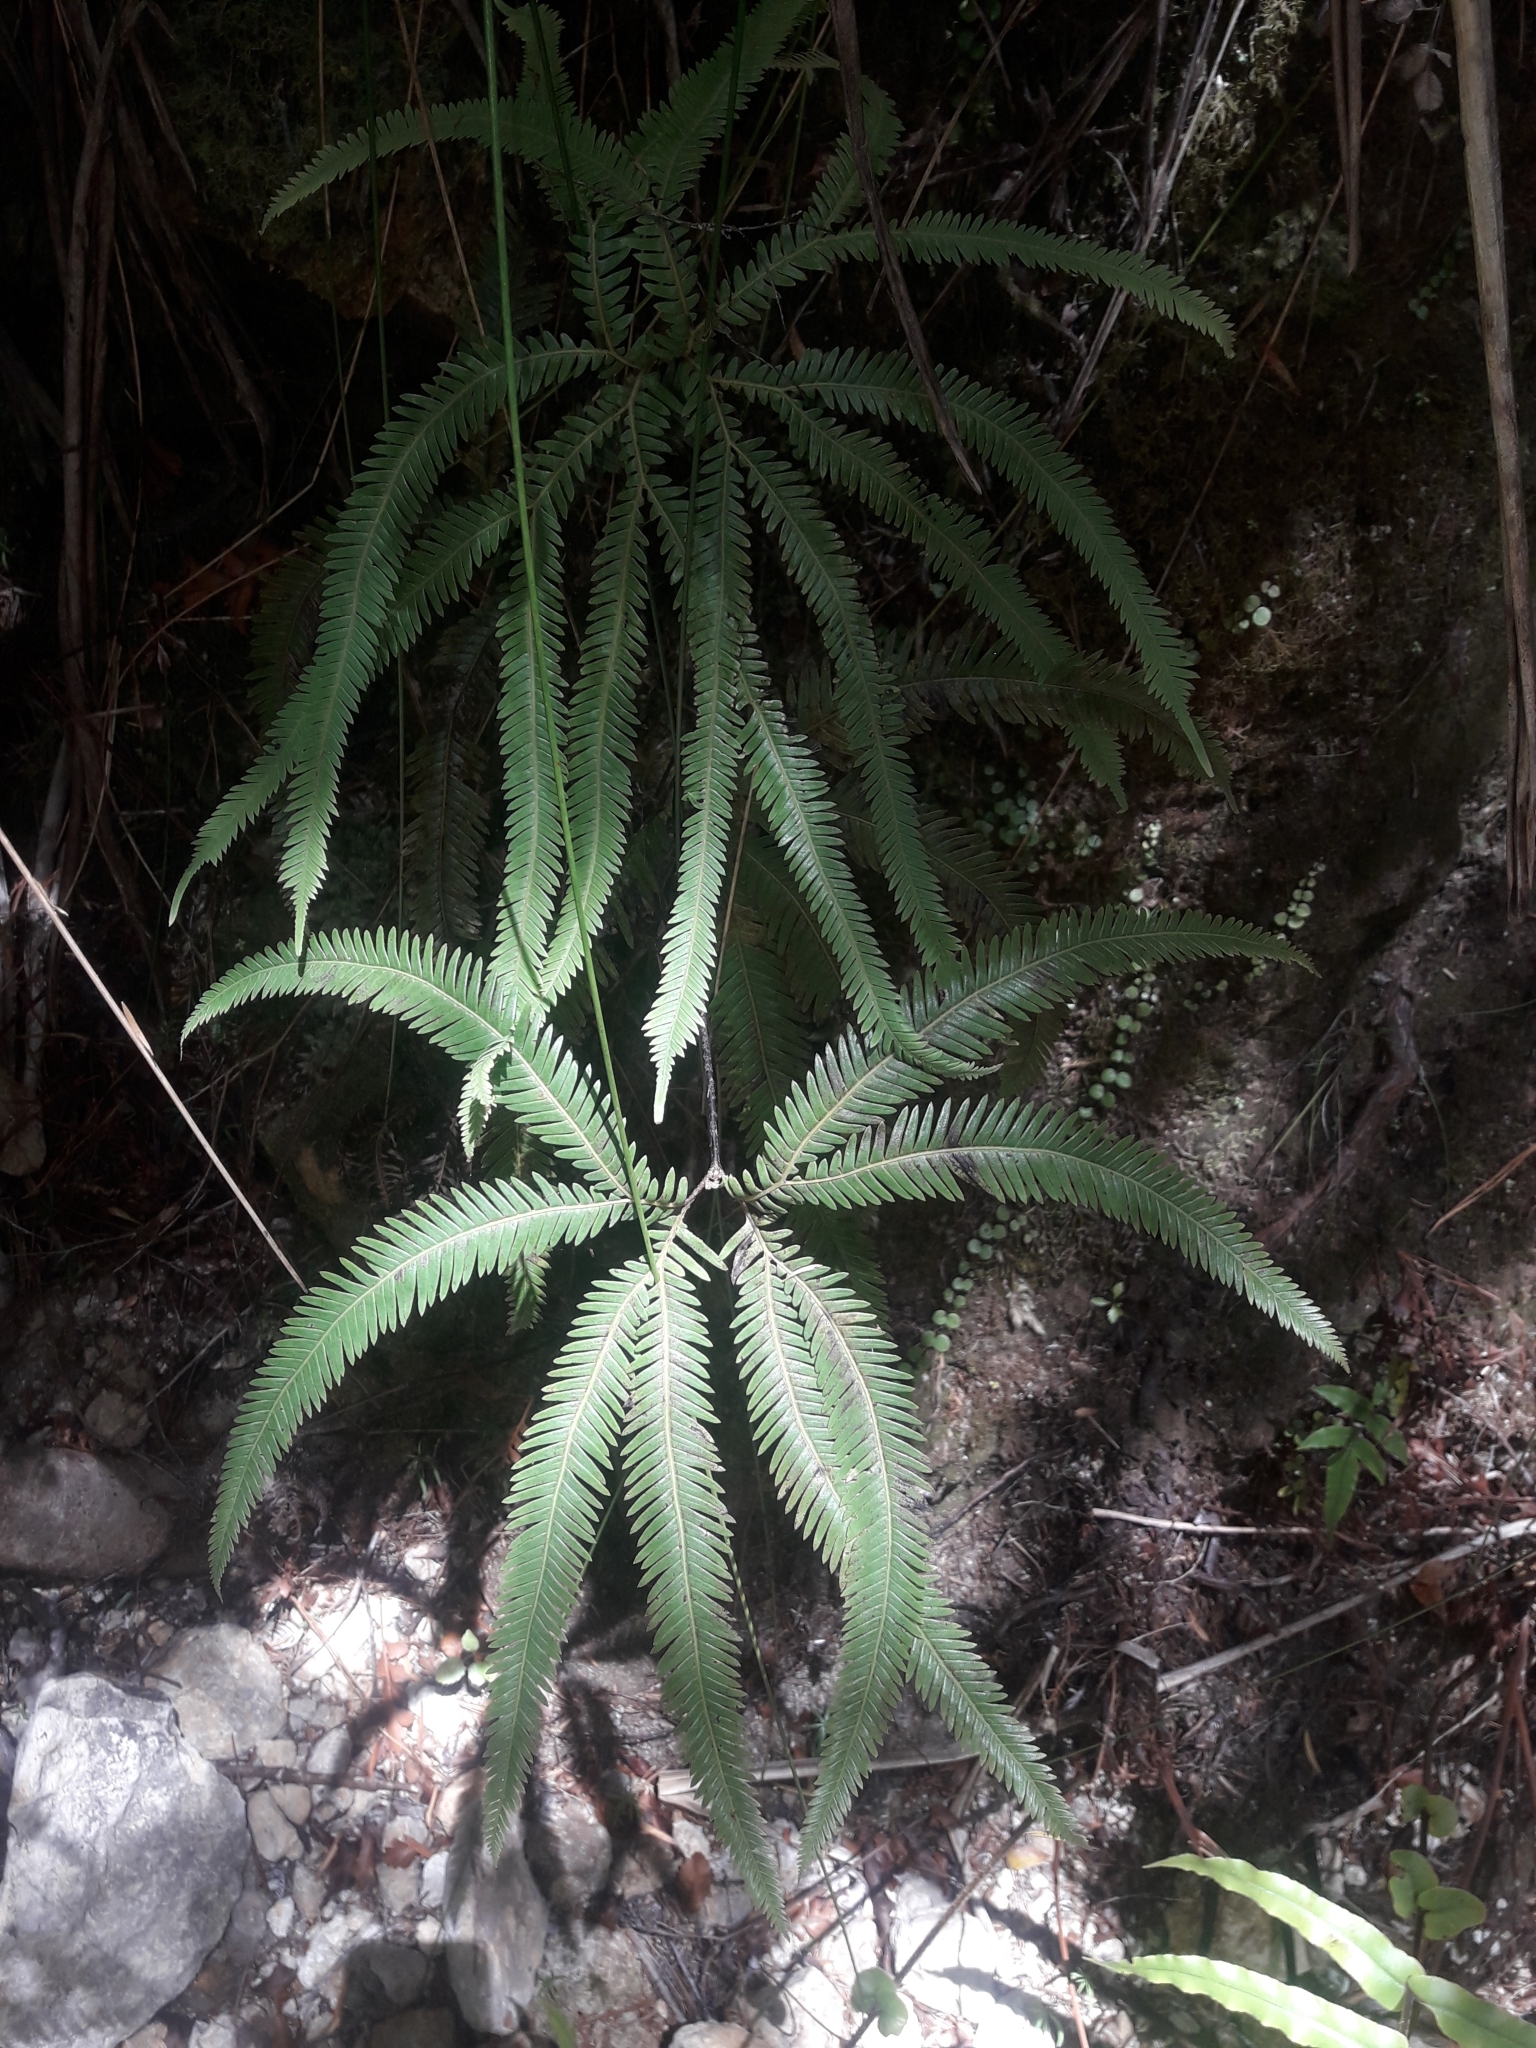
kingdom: Plantae
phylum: Tracheophyta
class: Polypodiopsida
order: Gleicheniales
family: Gleicheniaceae
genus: Sticherus
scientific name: Sticherus cunninghamii
